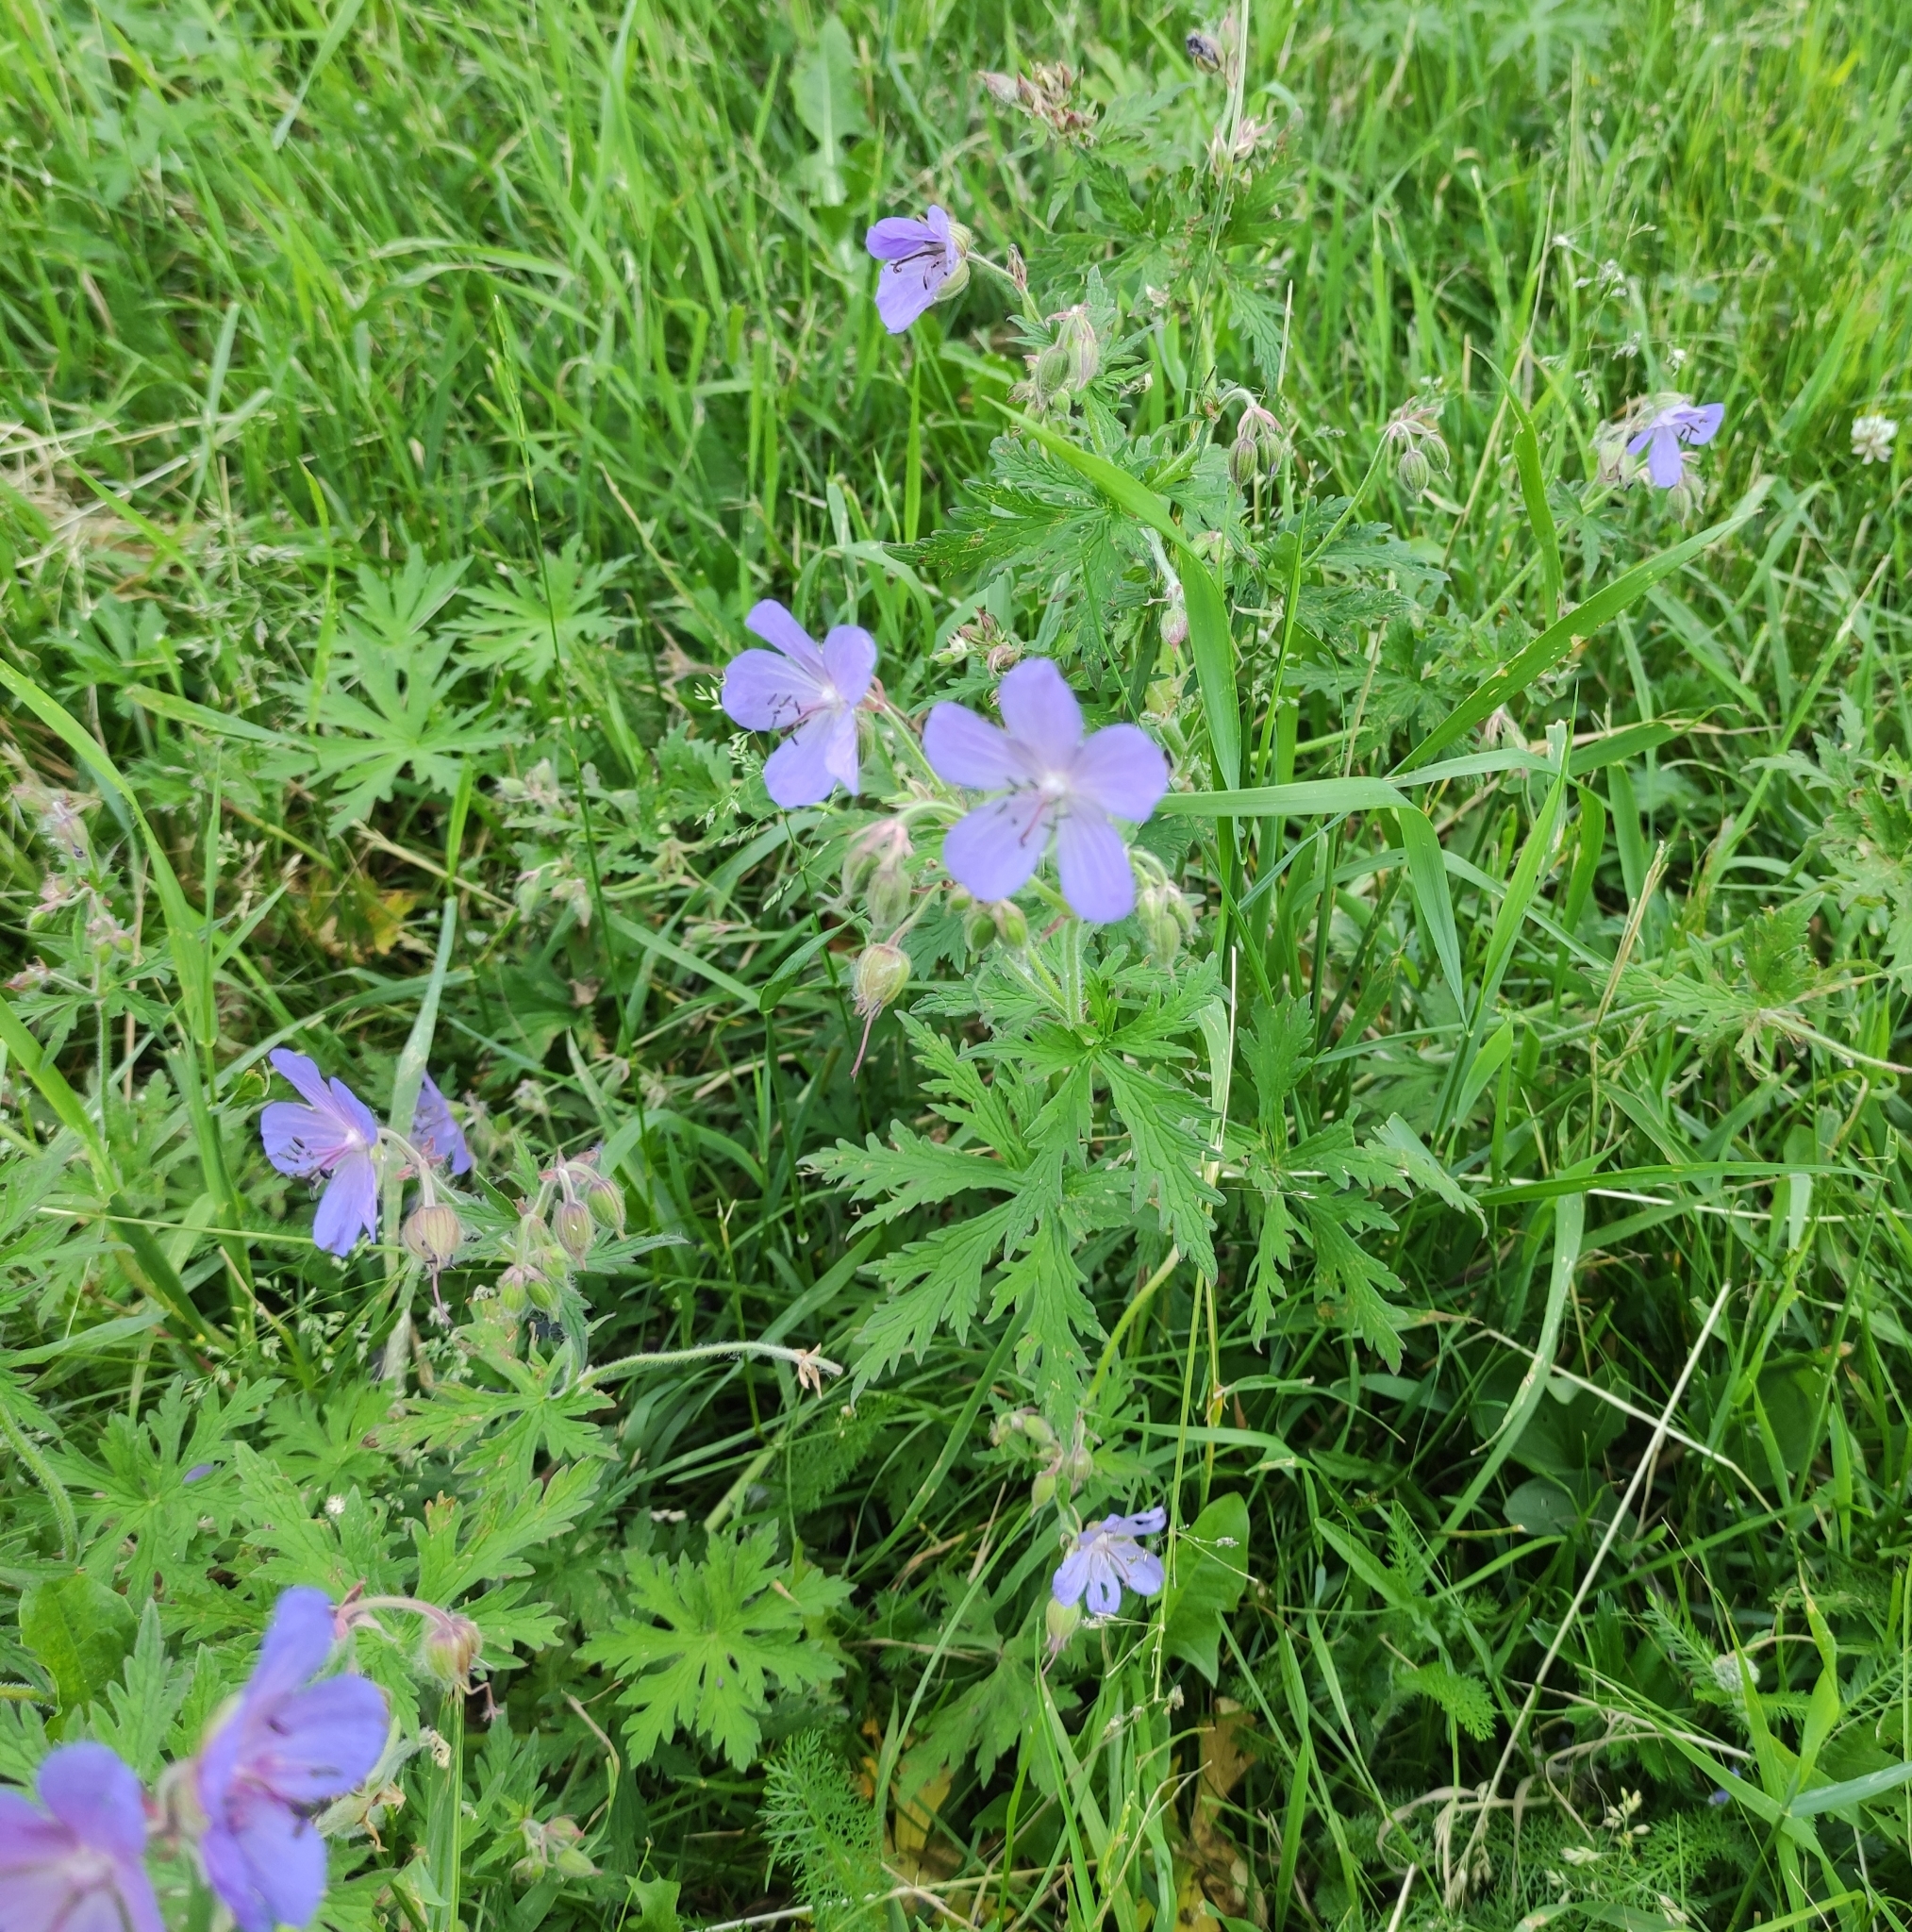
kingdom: Plantae
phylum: Tracheophyta
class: Magnoliopsida
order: Geraniales
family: Geraniaceae
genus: Geranium
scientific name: Geranium pratense
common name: Meadow crane's-bill
